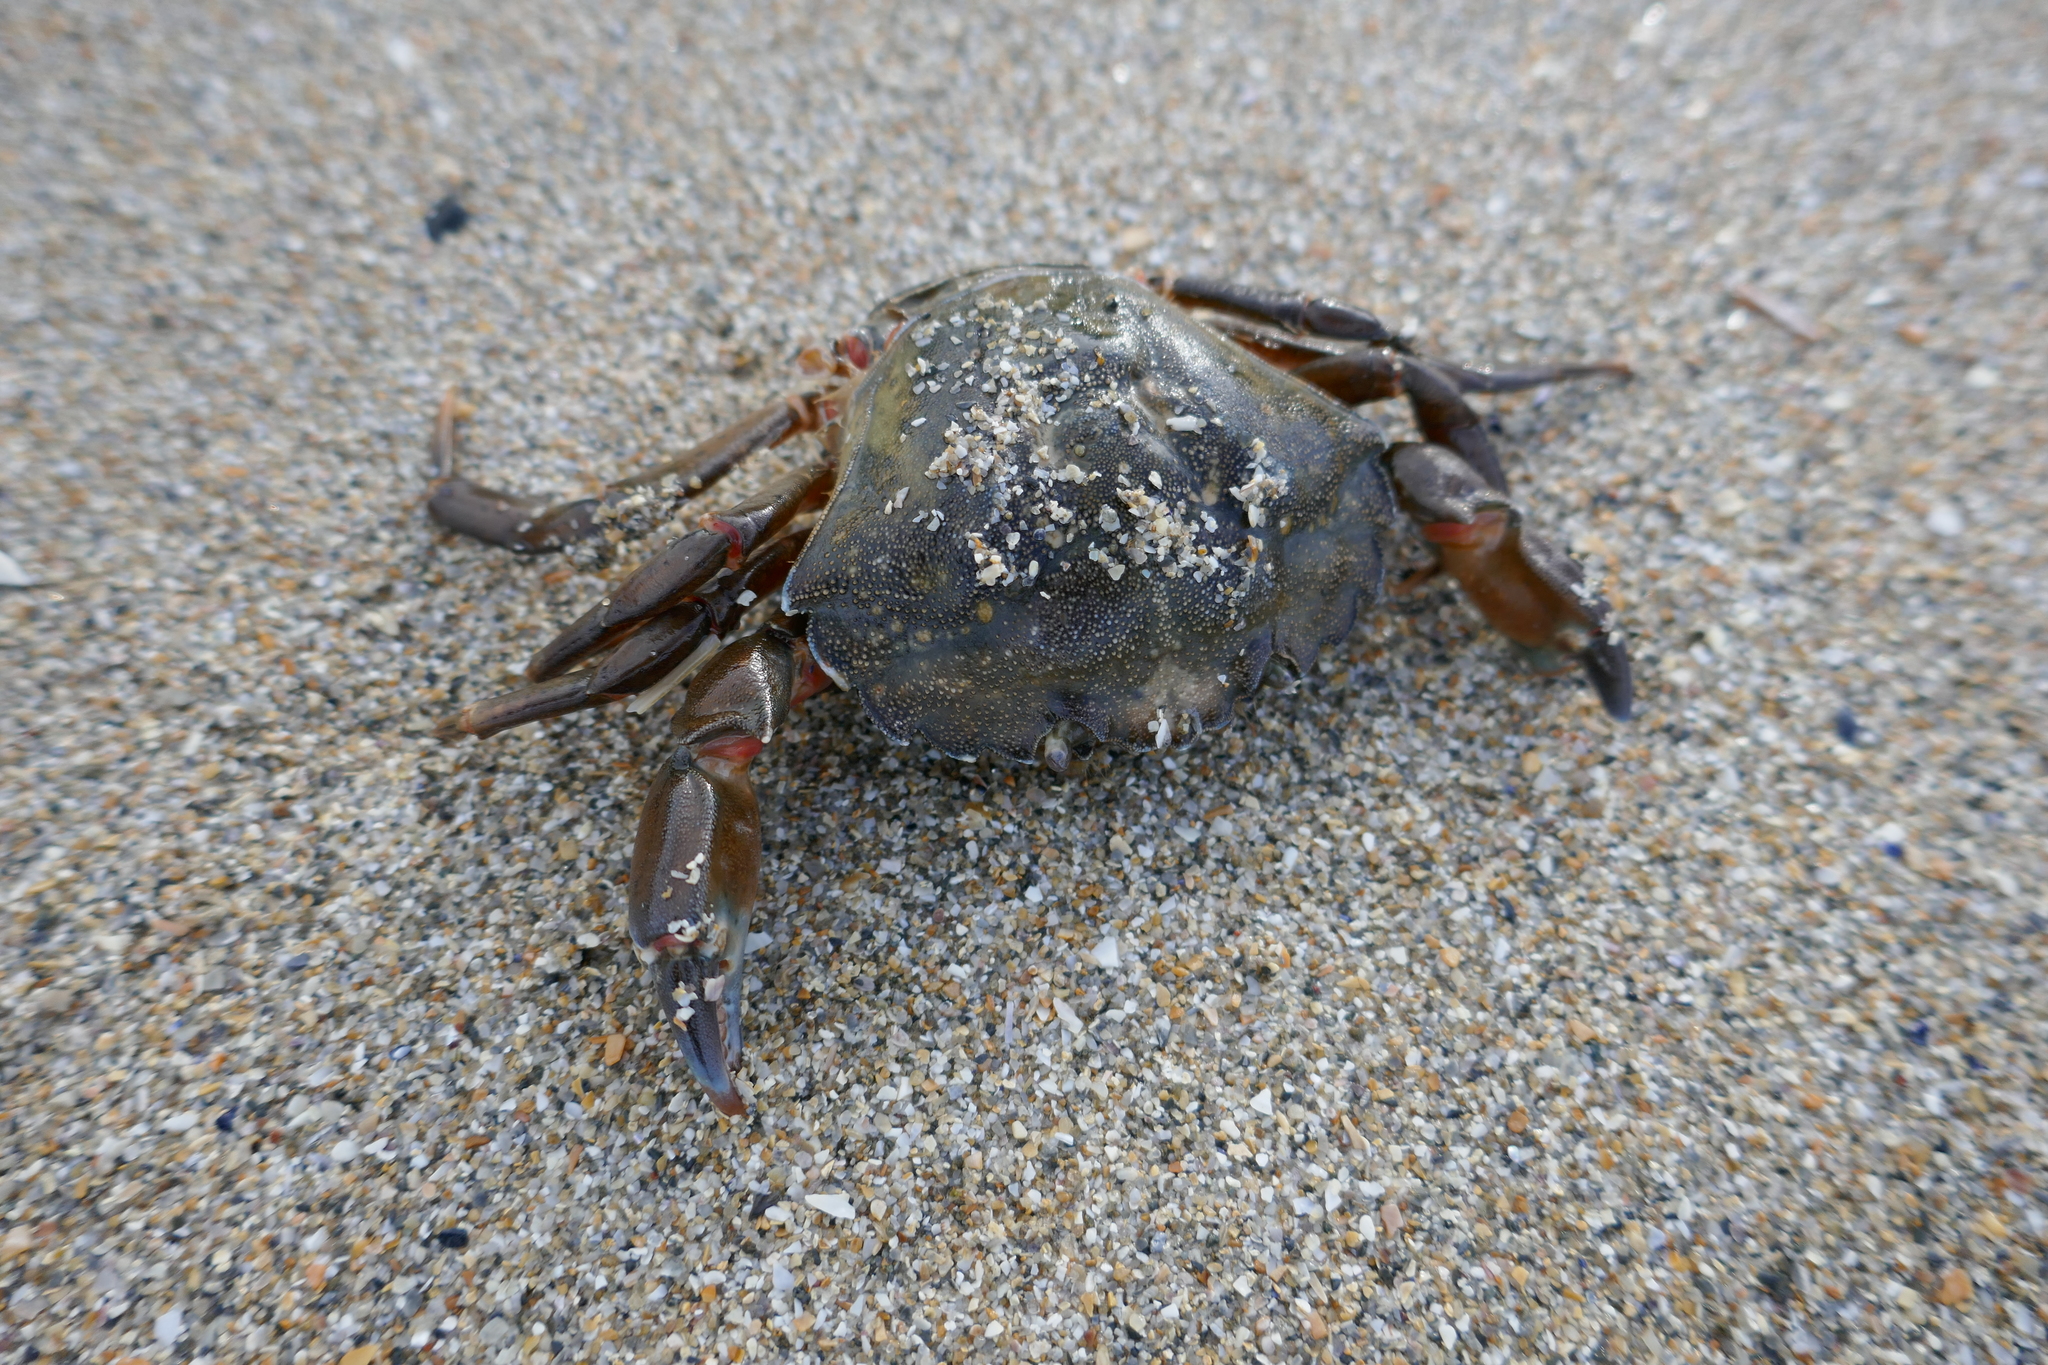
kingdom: Animalia
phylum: Arthropoda
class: Malacostraca
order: Decapoda
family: Carcinidae
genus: Carcinus
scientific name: Carcinus maenas
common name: European green crab
